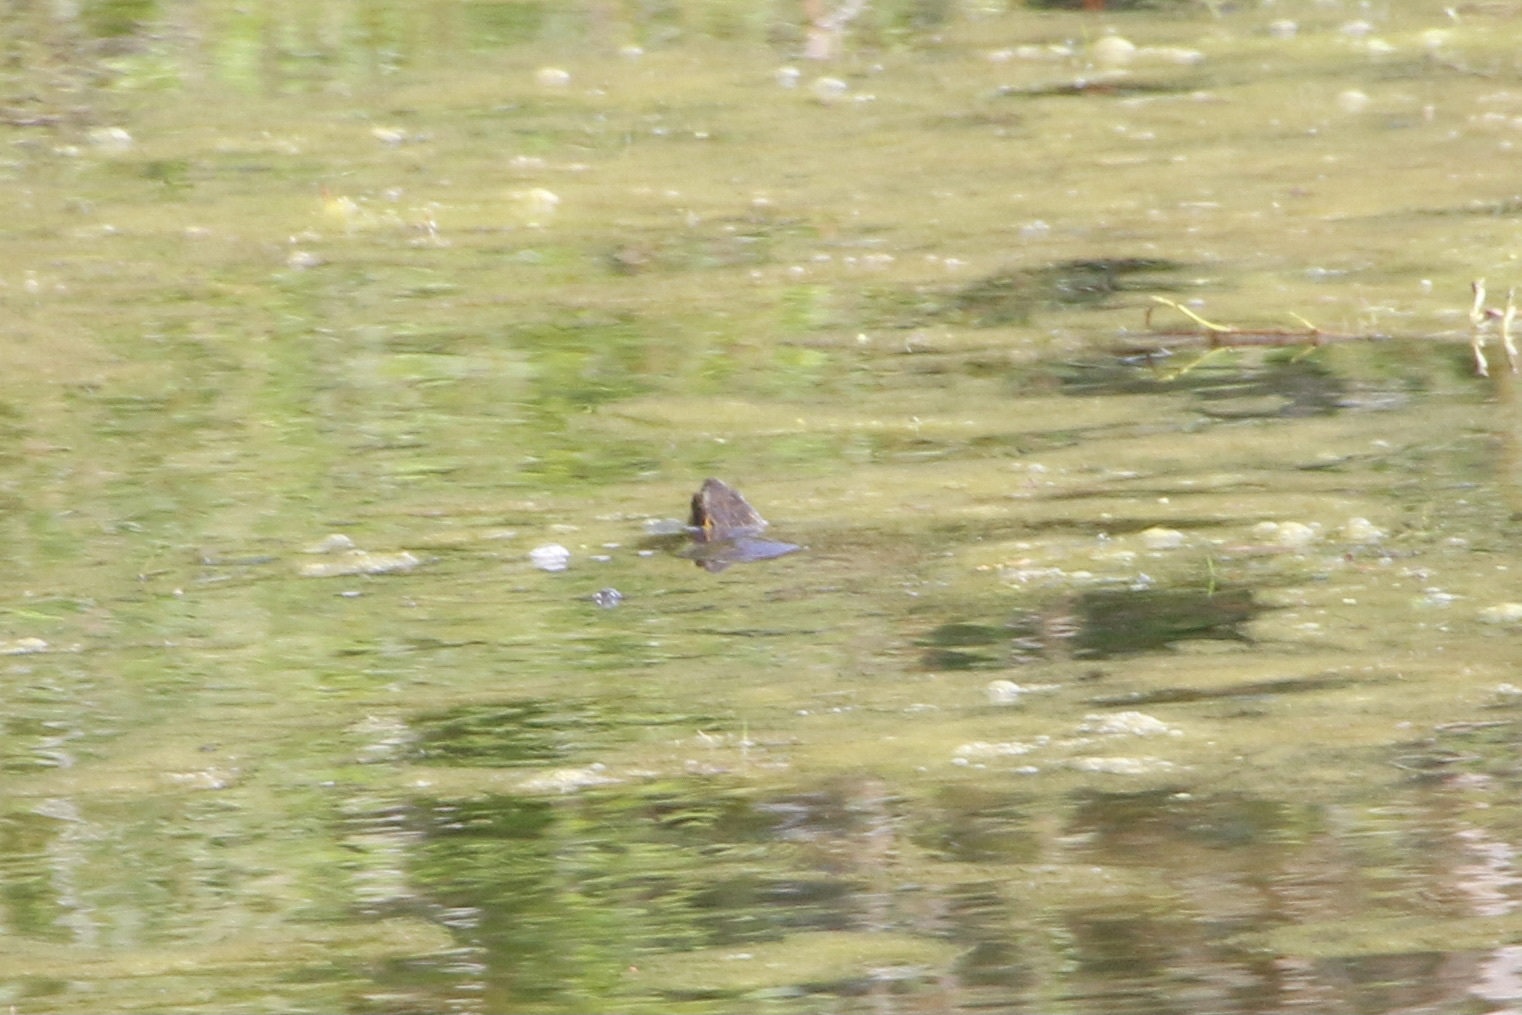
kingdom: Animalia
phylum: Chordata
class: Testudines
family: Emydidae
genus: Chrysemys
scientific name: Chrysemys picta
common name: Painted turtle
